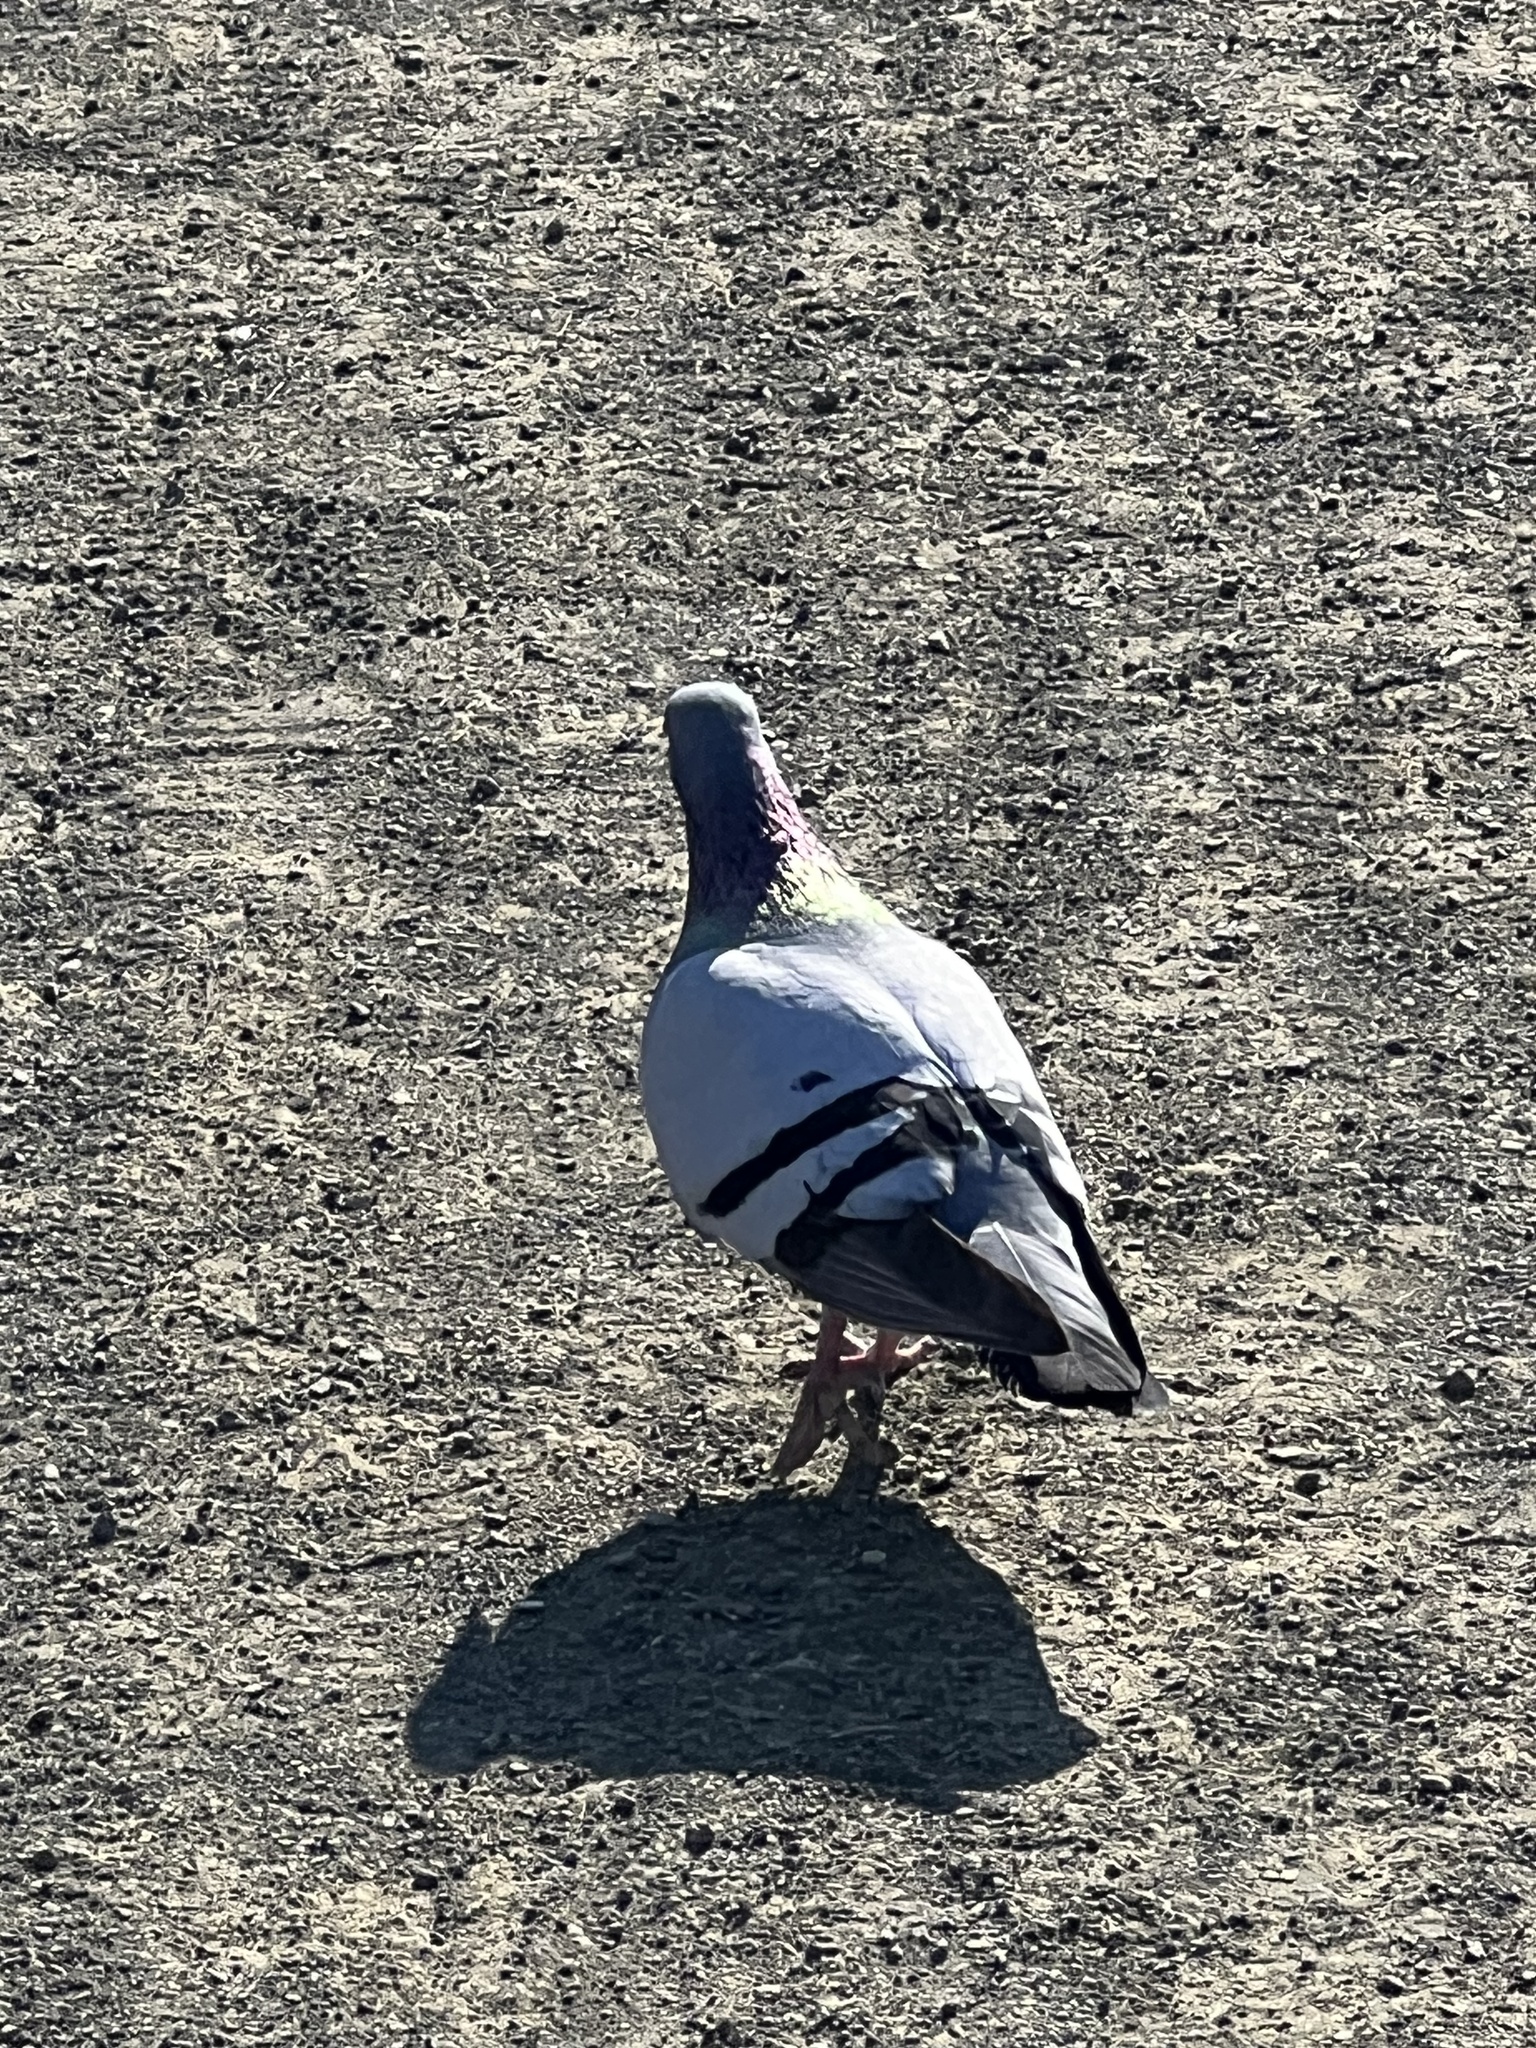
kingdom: Animalia
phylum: Chordata
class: Aves
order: Columbiformes
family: Columbidae
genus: Columba
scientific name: Columba livia
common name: Rock pigeon
